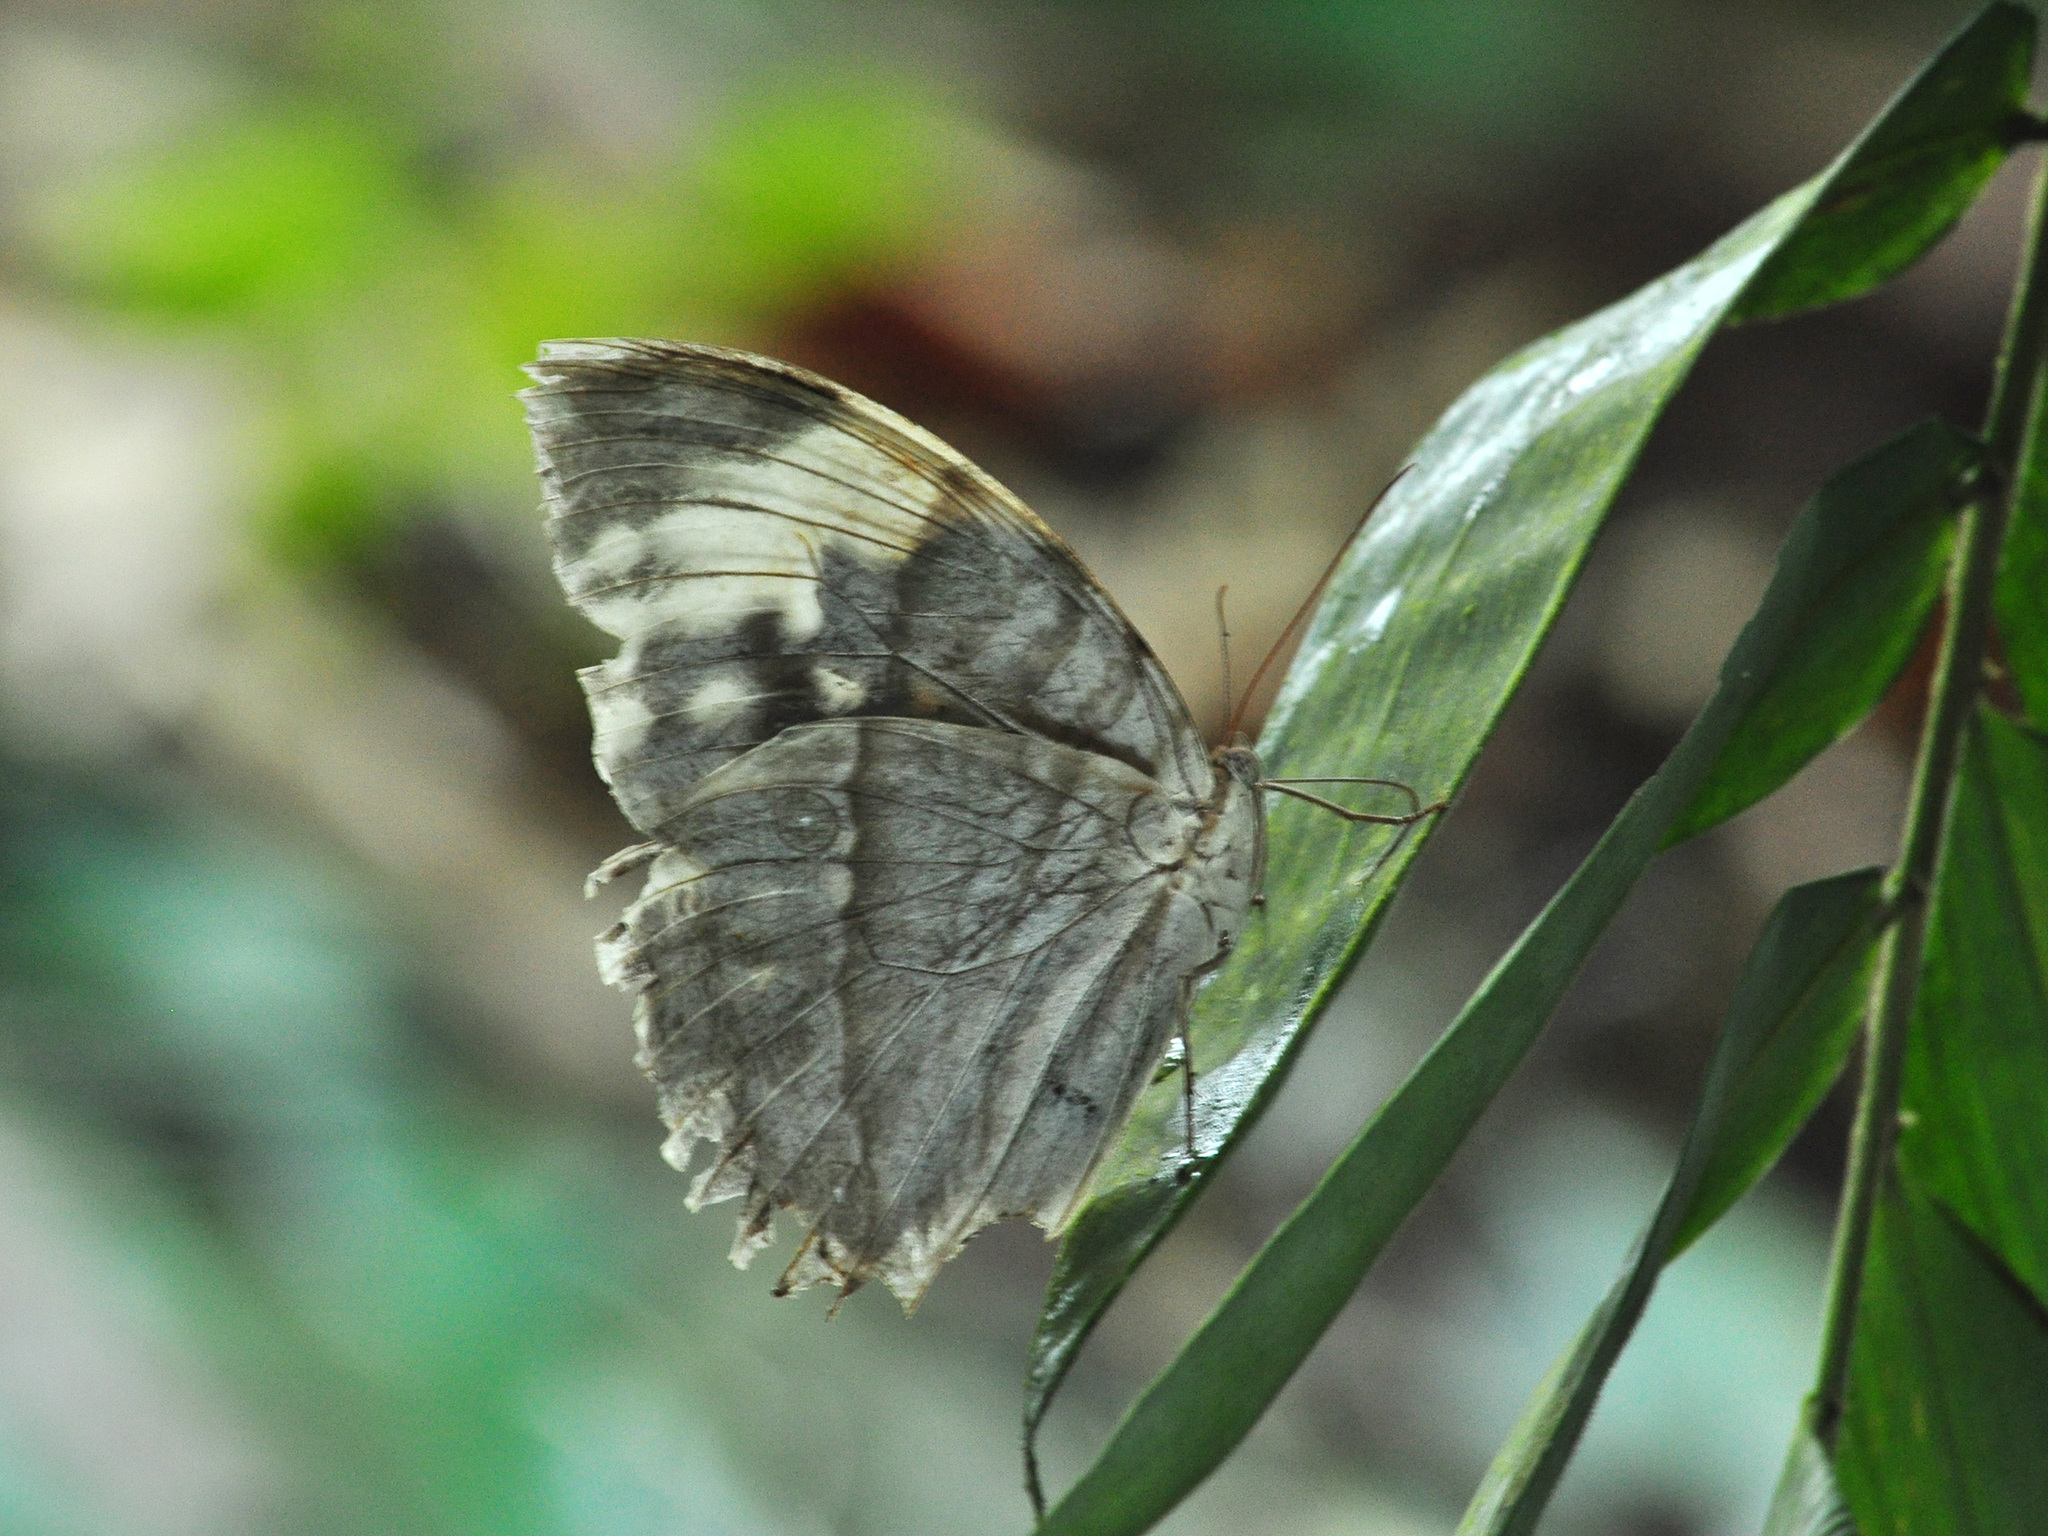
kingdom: Animalia
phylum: Arthropoda
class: Insecta
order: Lepidoptera
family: Nymphalidae
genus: Zeuxidia
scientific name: Zeuxidia aurelia
